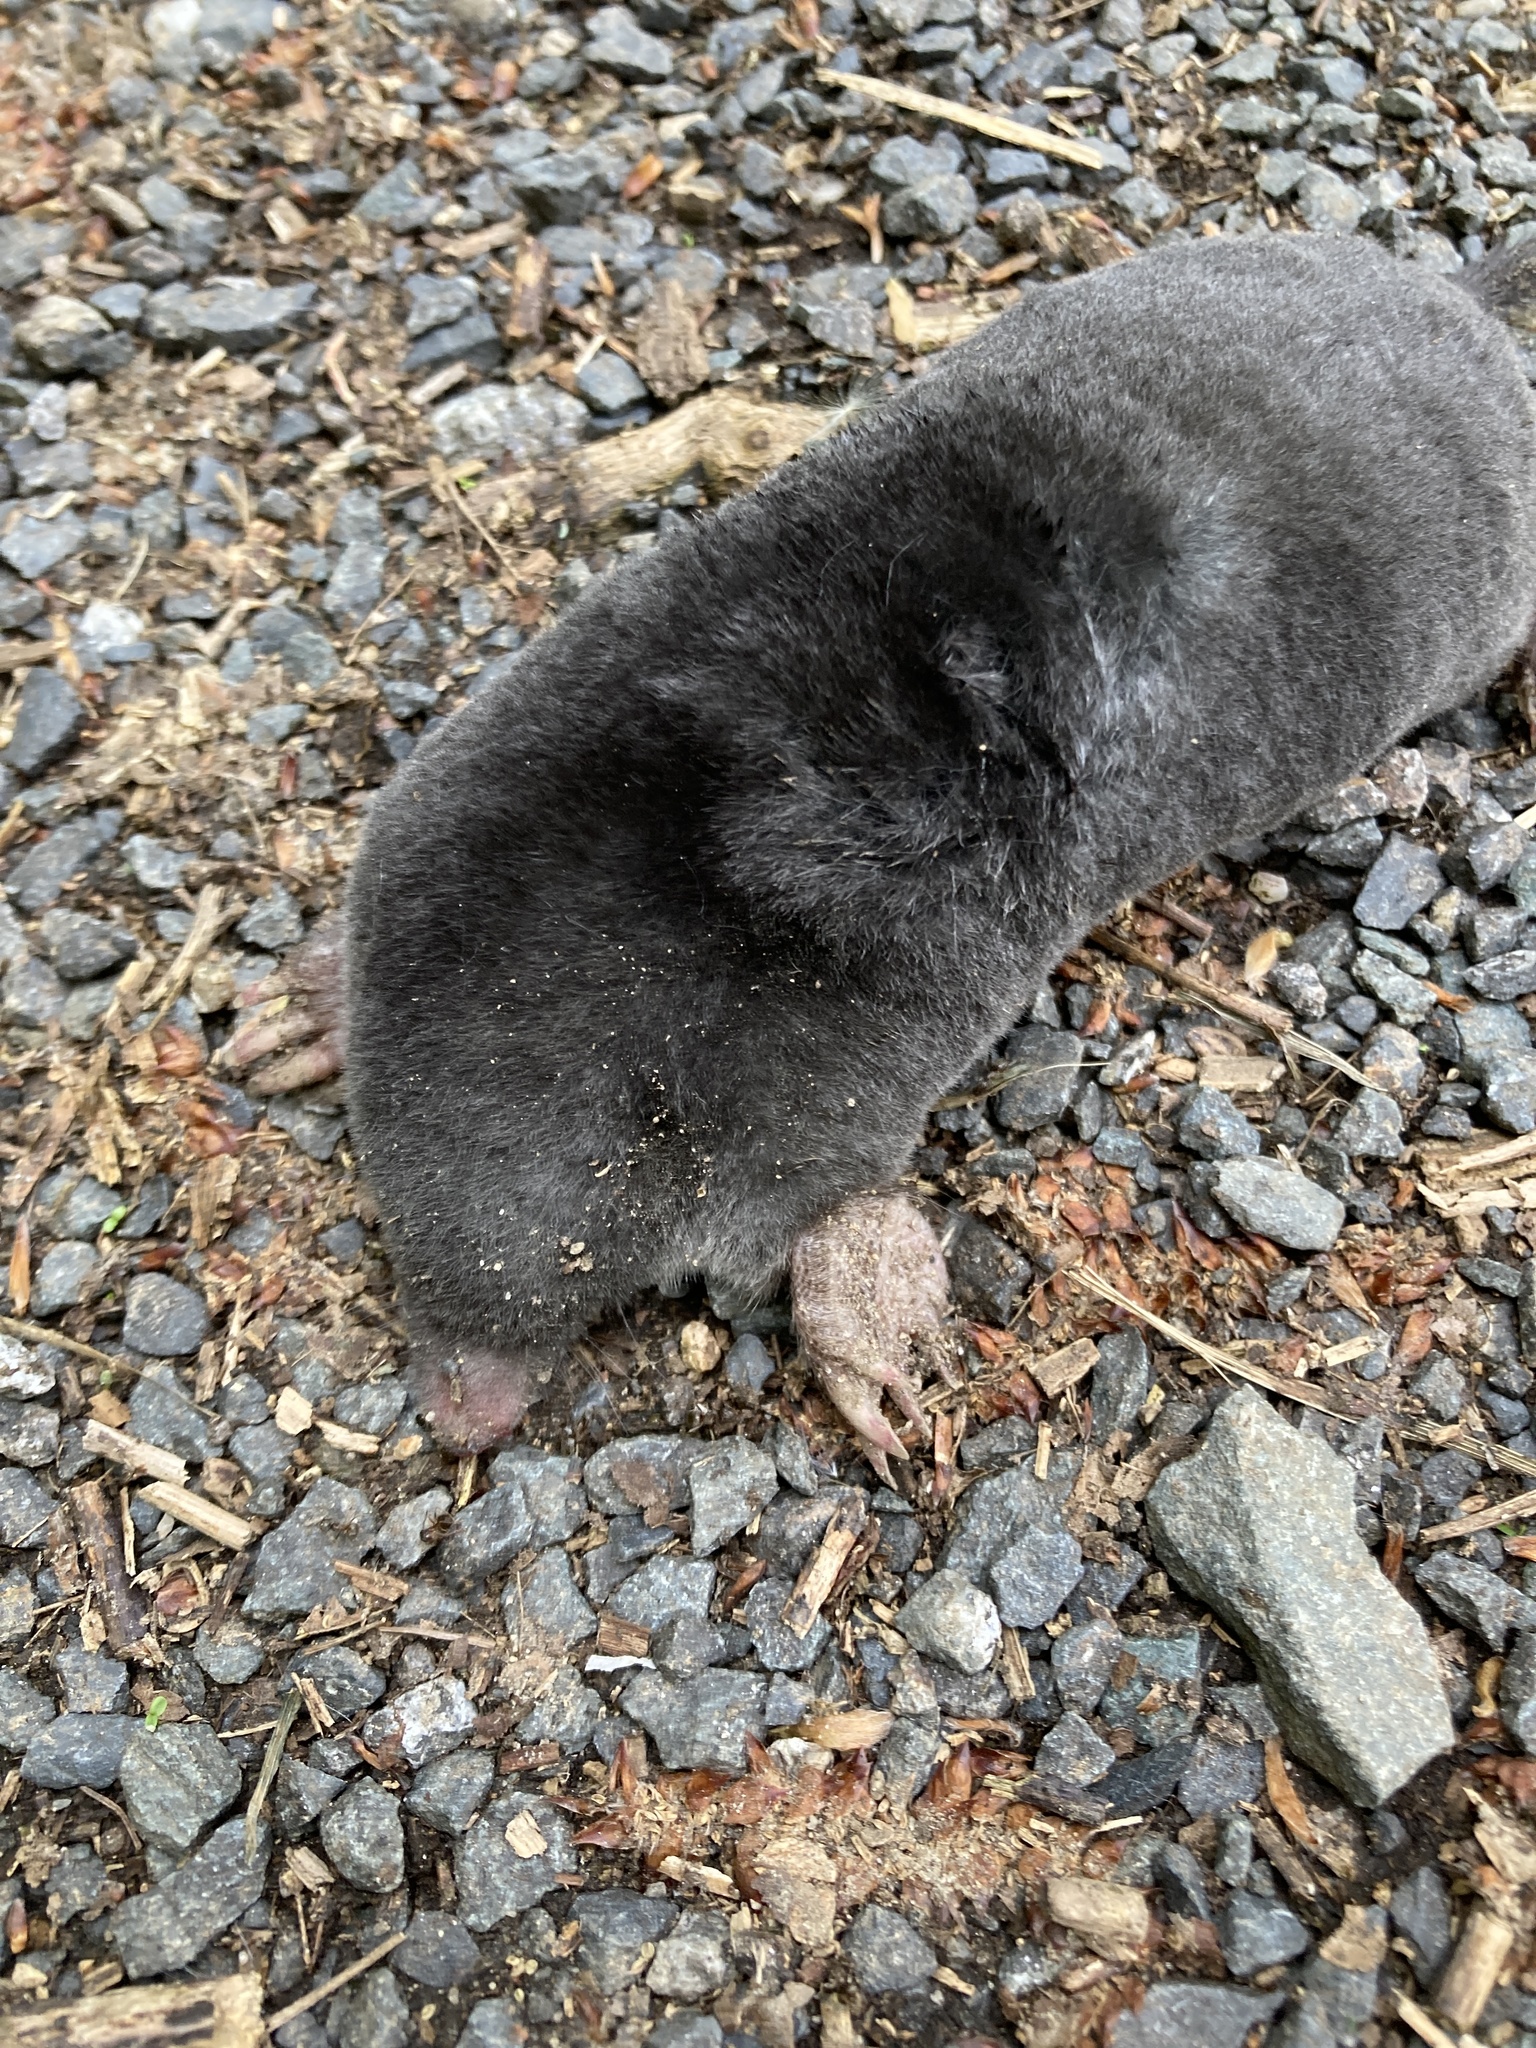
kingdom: Animalia
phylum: Chordata
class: Mammalia
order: Soricomorpha
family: Talpidae
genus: Talpa
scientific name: Talpa europaea
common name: European mole
